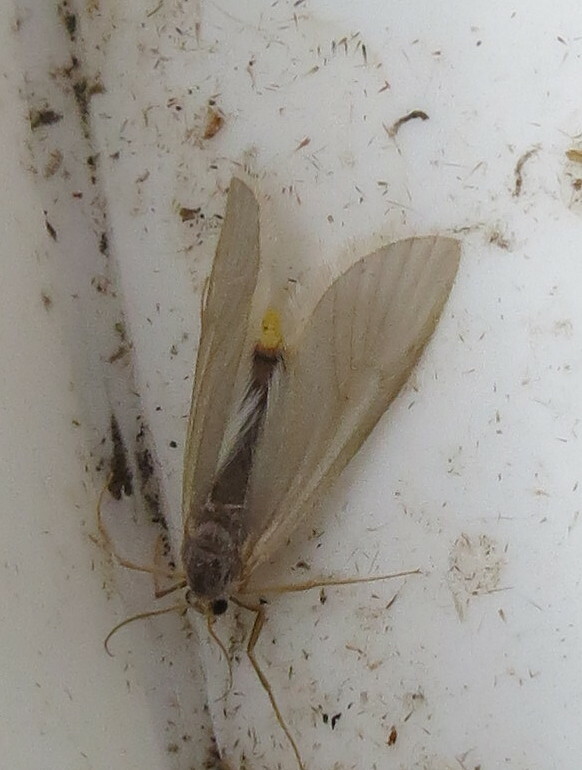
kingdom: Animalia
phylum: Arthropoda
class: Insecta
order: Lepidoptera
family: Crambidae
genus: Acentria
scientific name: Acentria ephemerella
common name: European water moth
